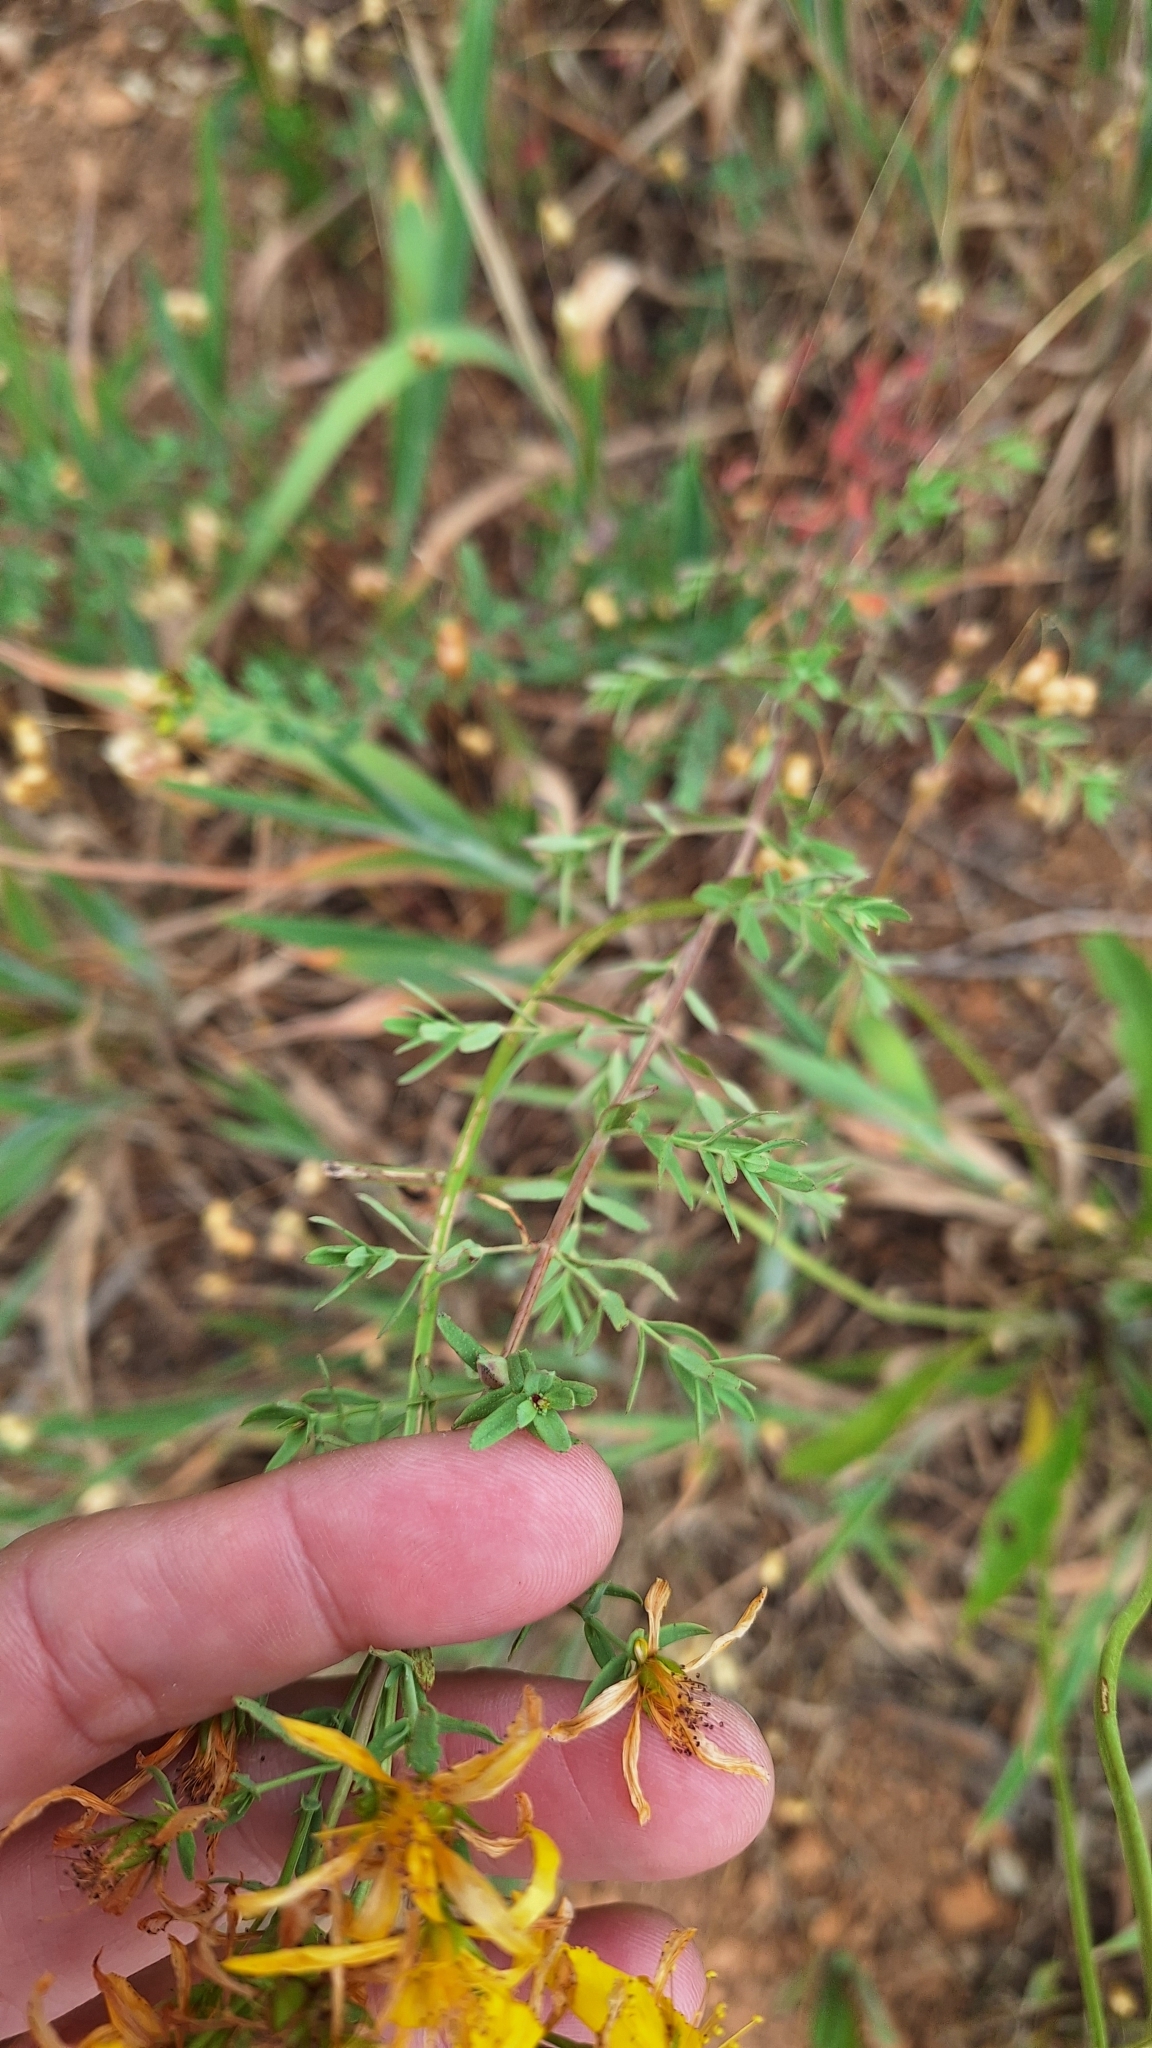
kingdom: Plantae
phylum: Tracheophyta
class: Magnoliopsida
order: Malpighiales
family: Hypericaceae
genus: Hypericum
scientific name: Hypericum perforatum
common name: Common st. johnswort
